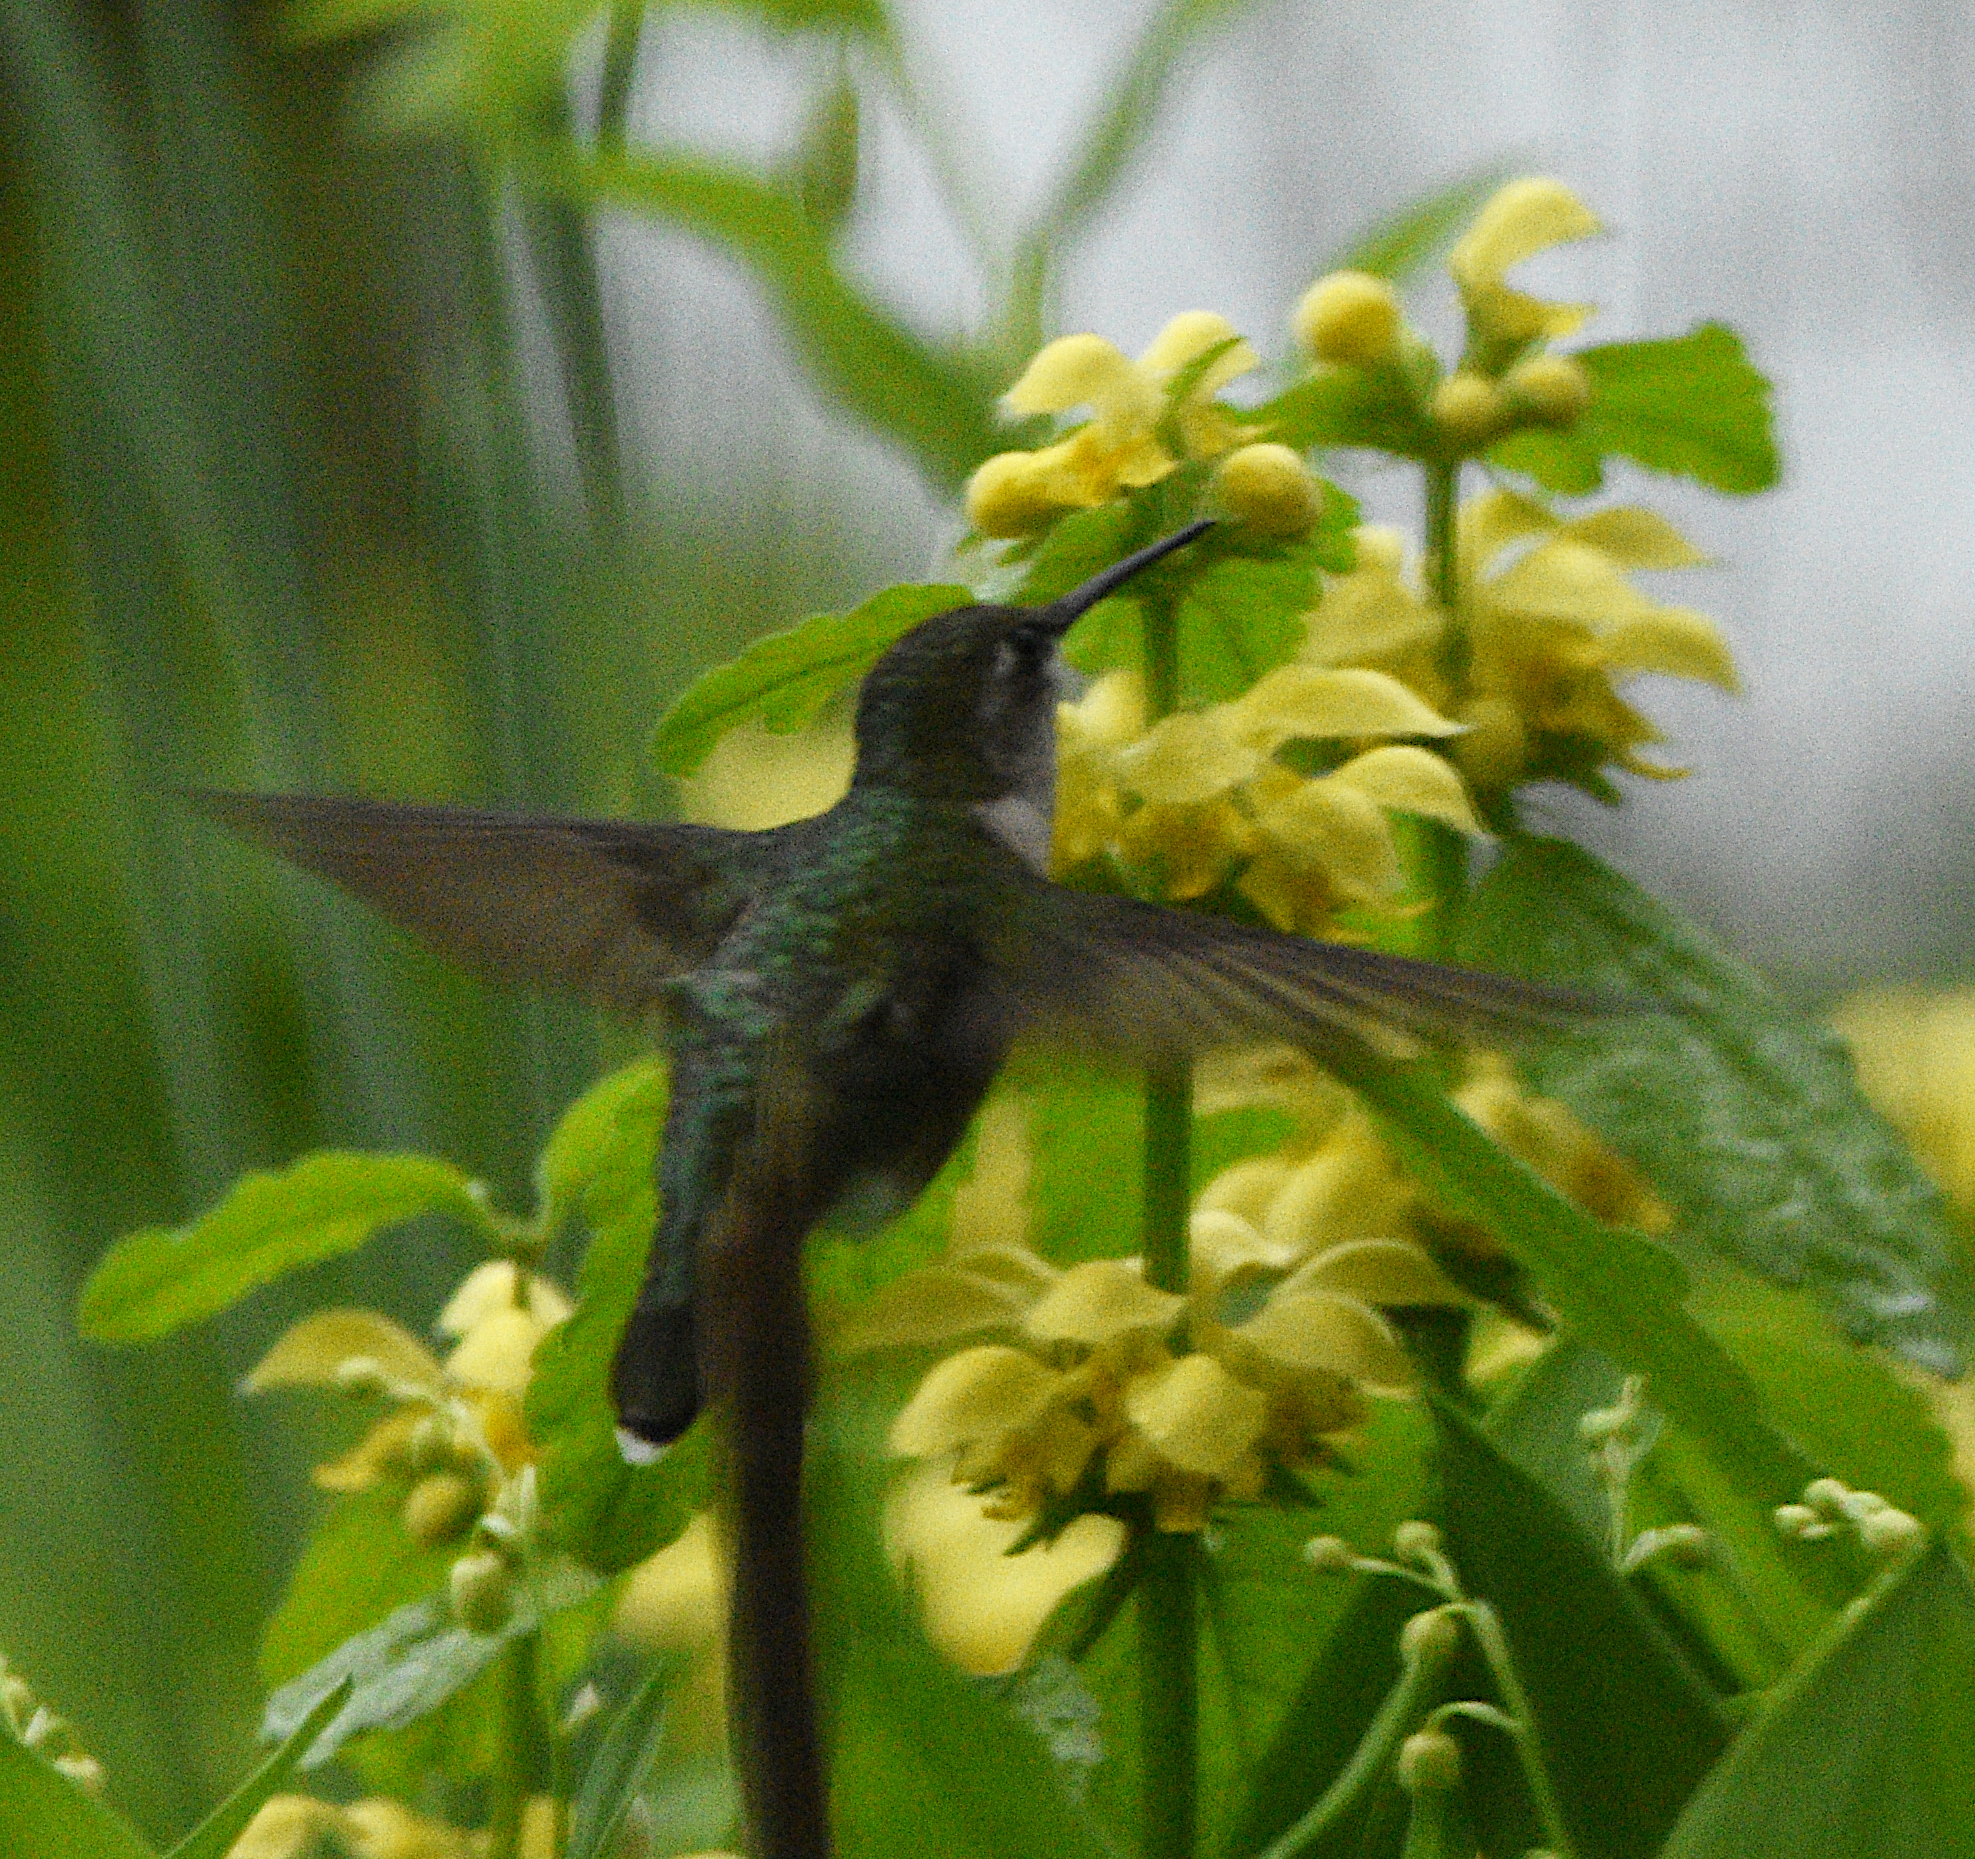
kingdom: Animalia
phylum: Chordata
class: Aves
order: Apodiformes
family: Trochilidae
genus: Archilochus
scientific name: Archilochus colubris
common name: Ruby-throated hummingbird
